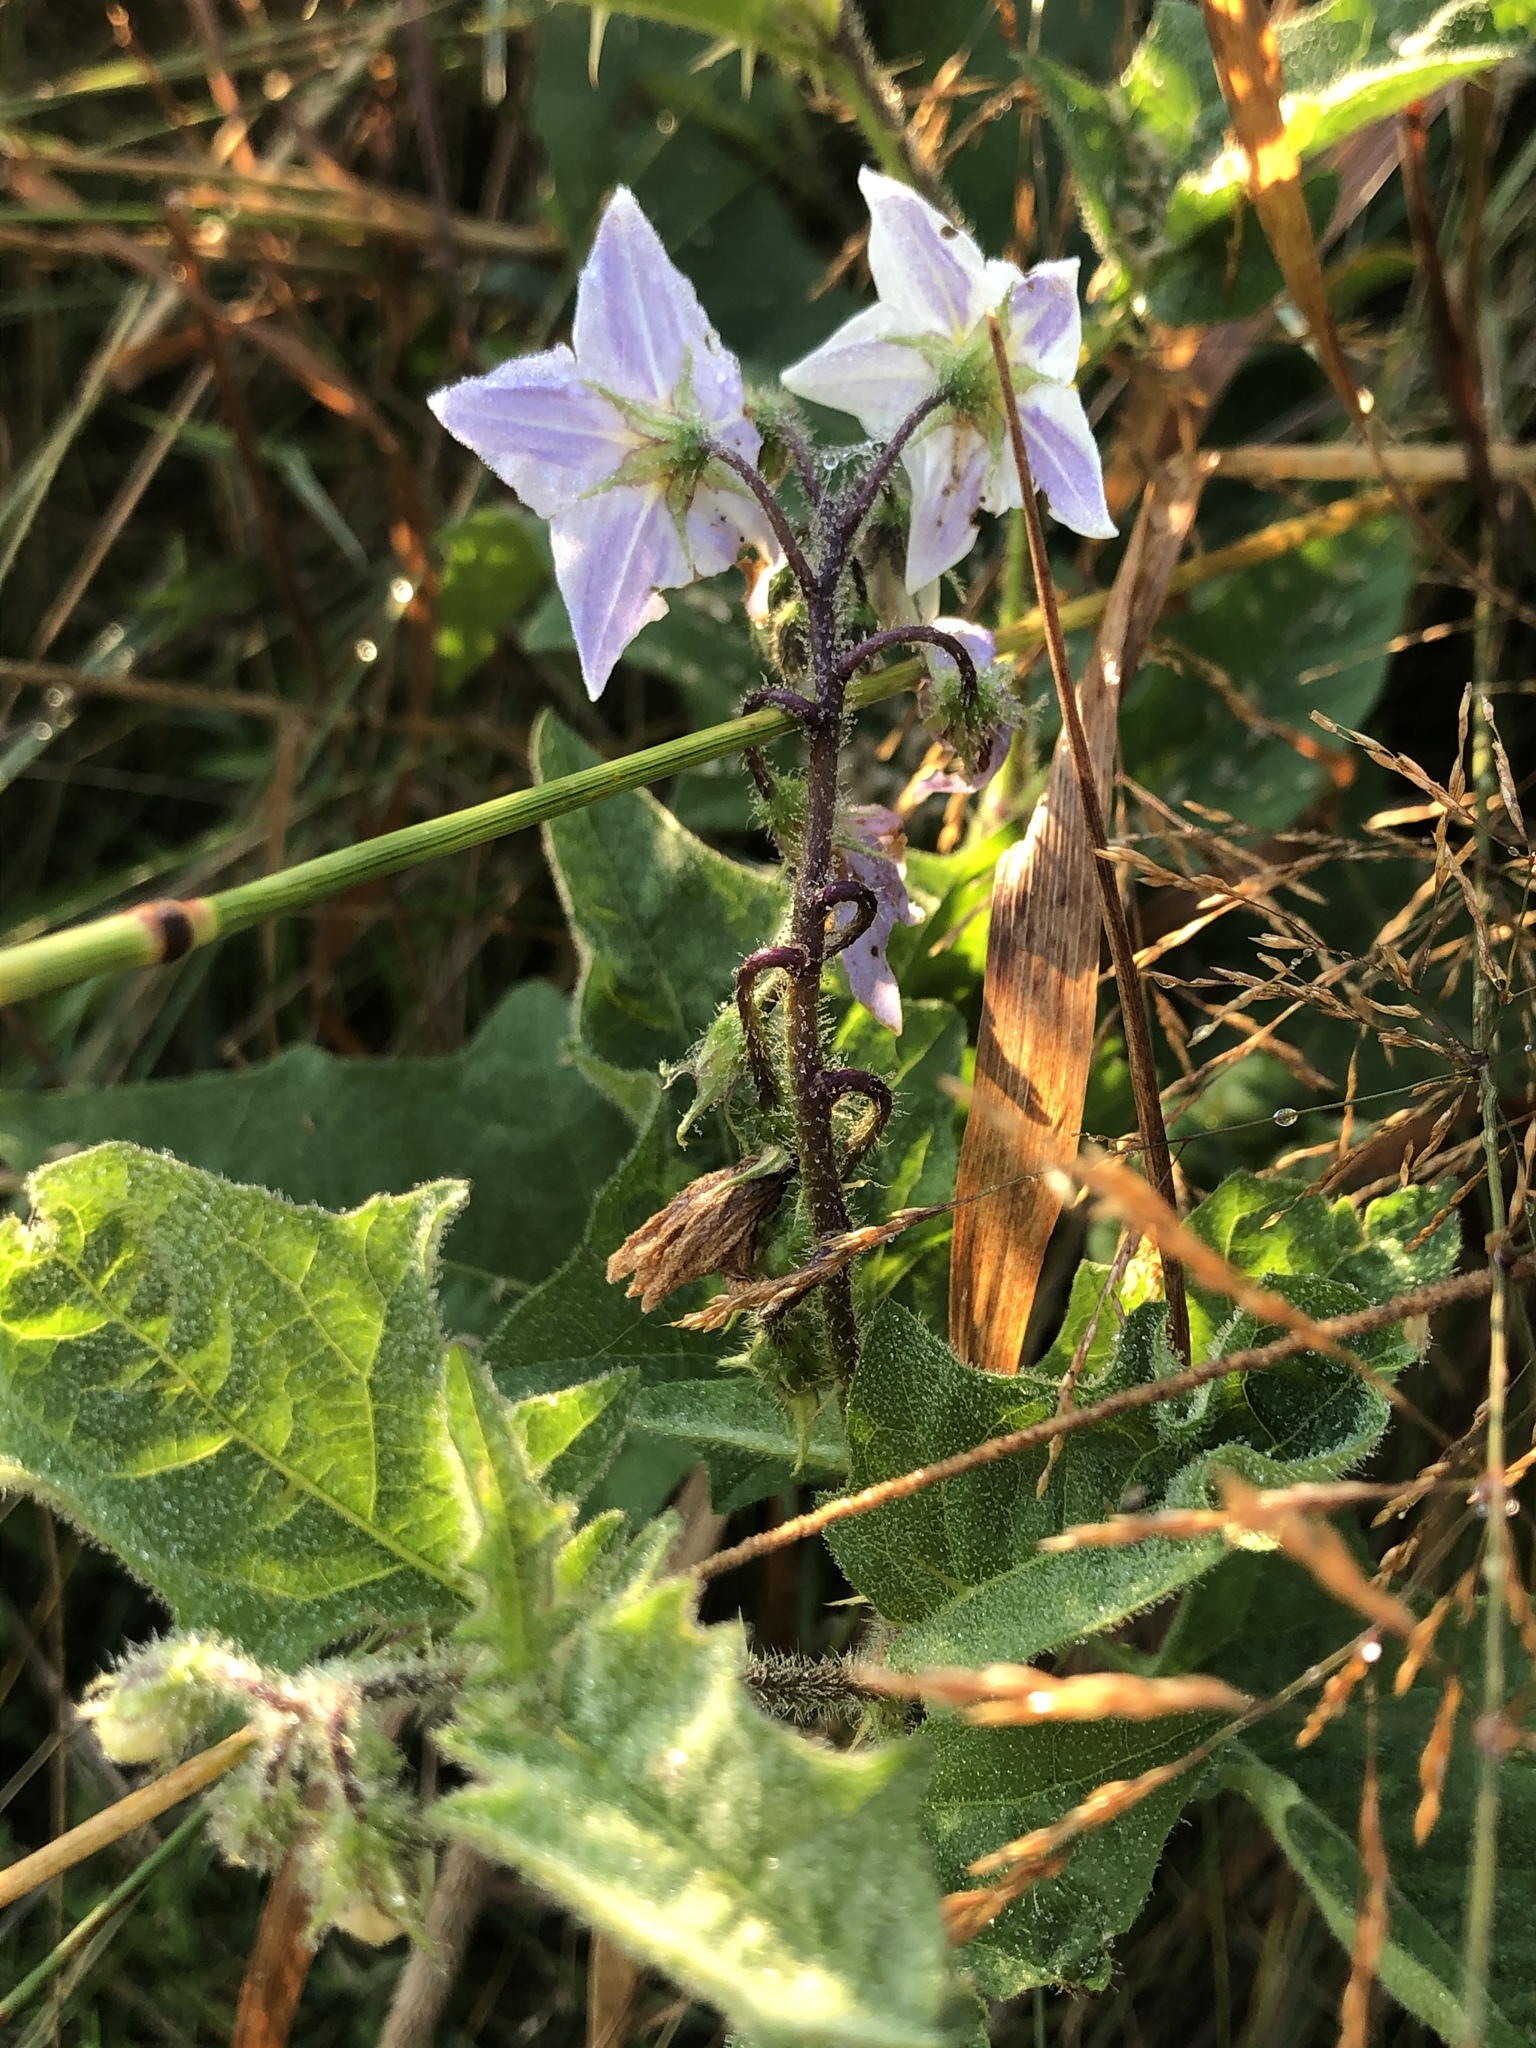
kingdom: Plantae
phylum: Tracheophyta
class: Magnoliopsida
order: Solanales
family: Solanaceae
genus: Solanum
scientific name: Solanum carolinense
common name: Horse-nettle
